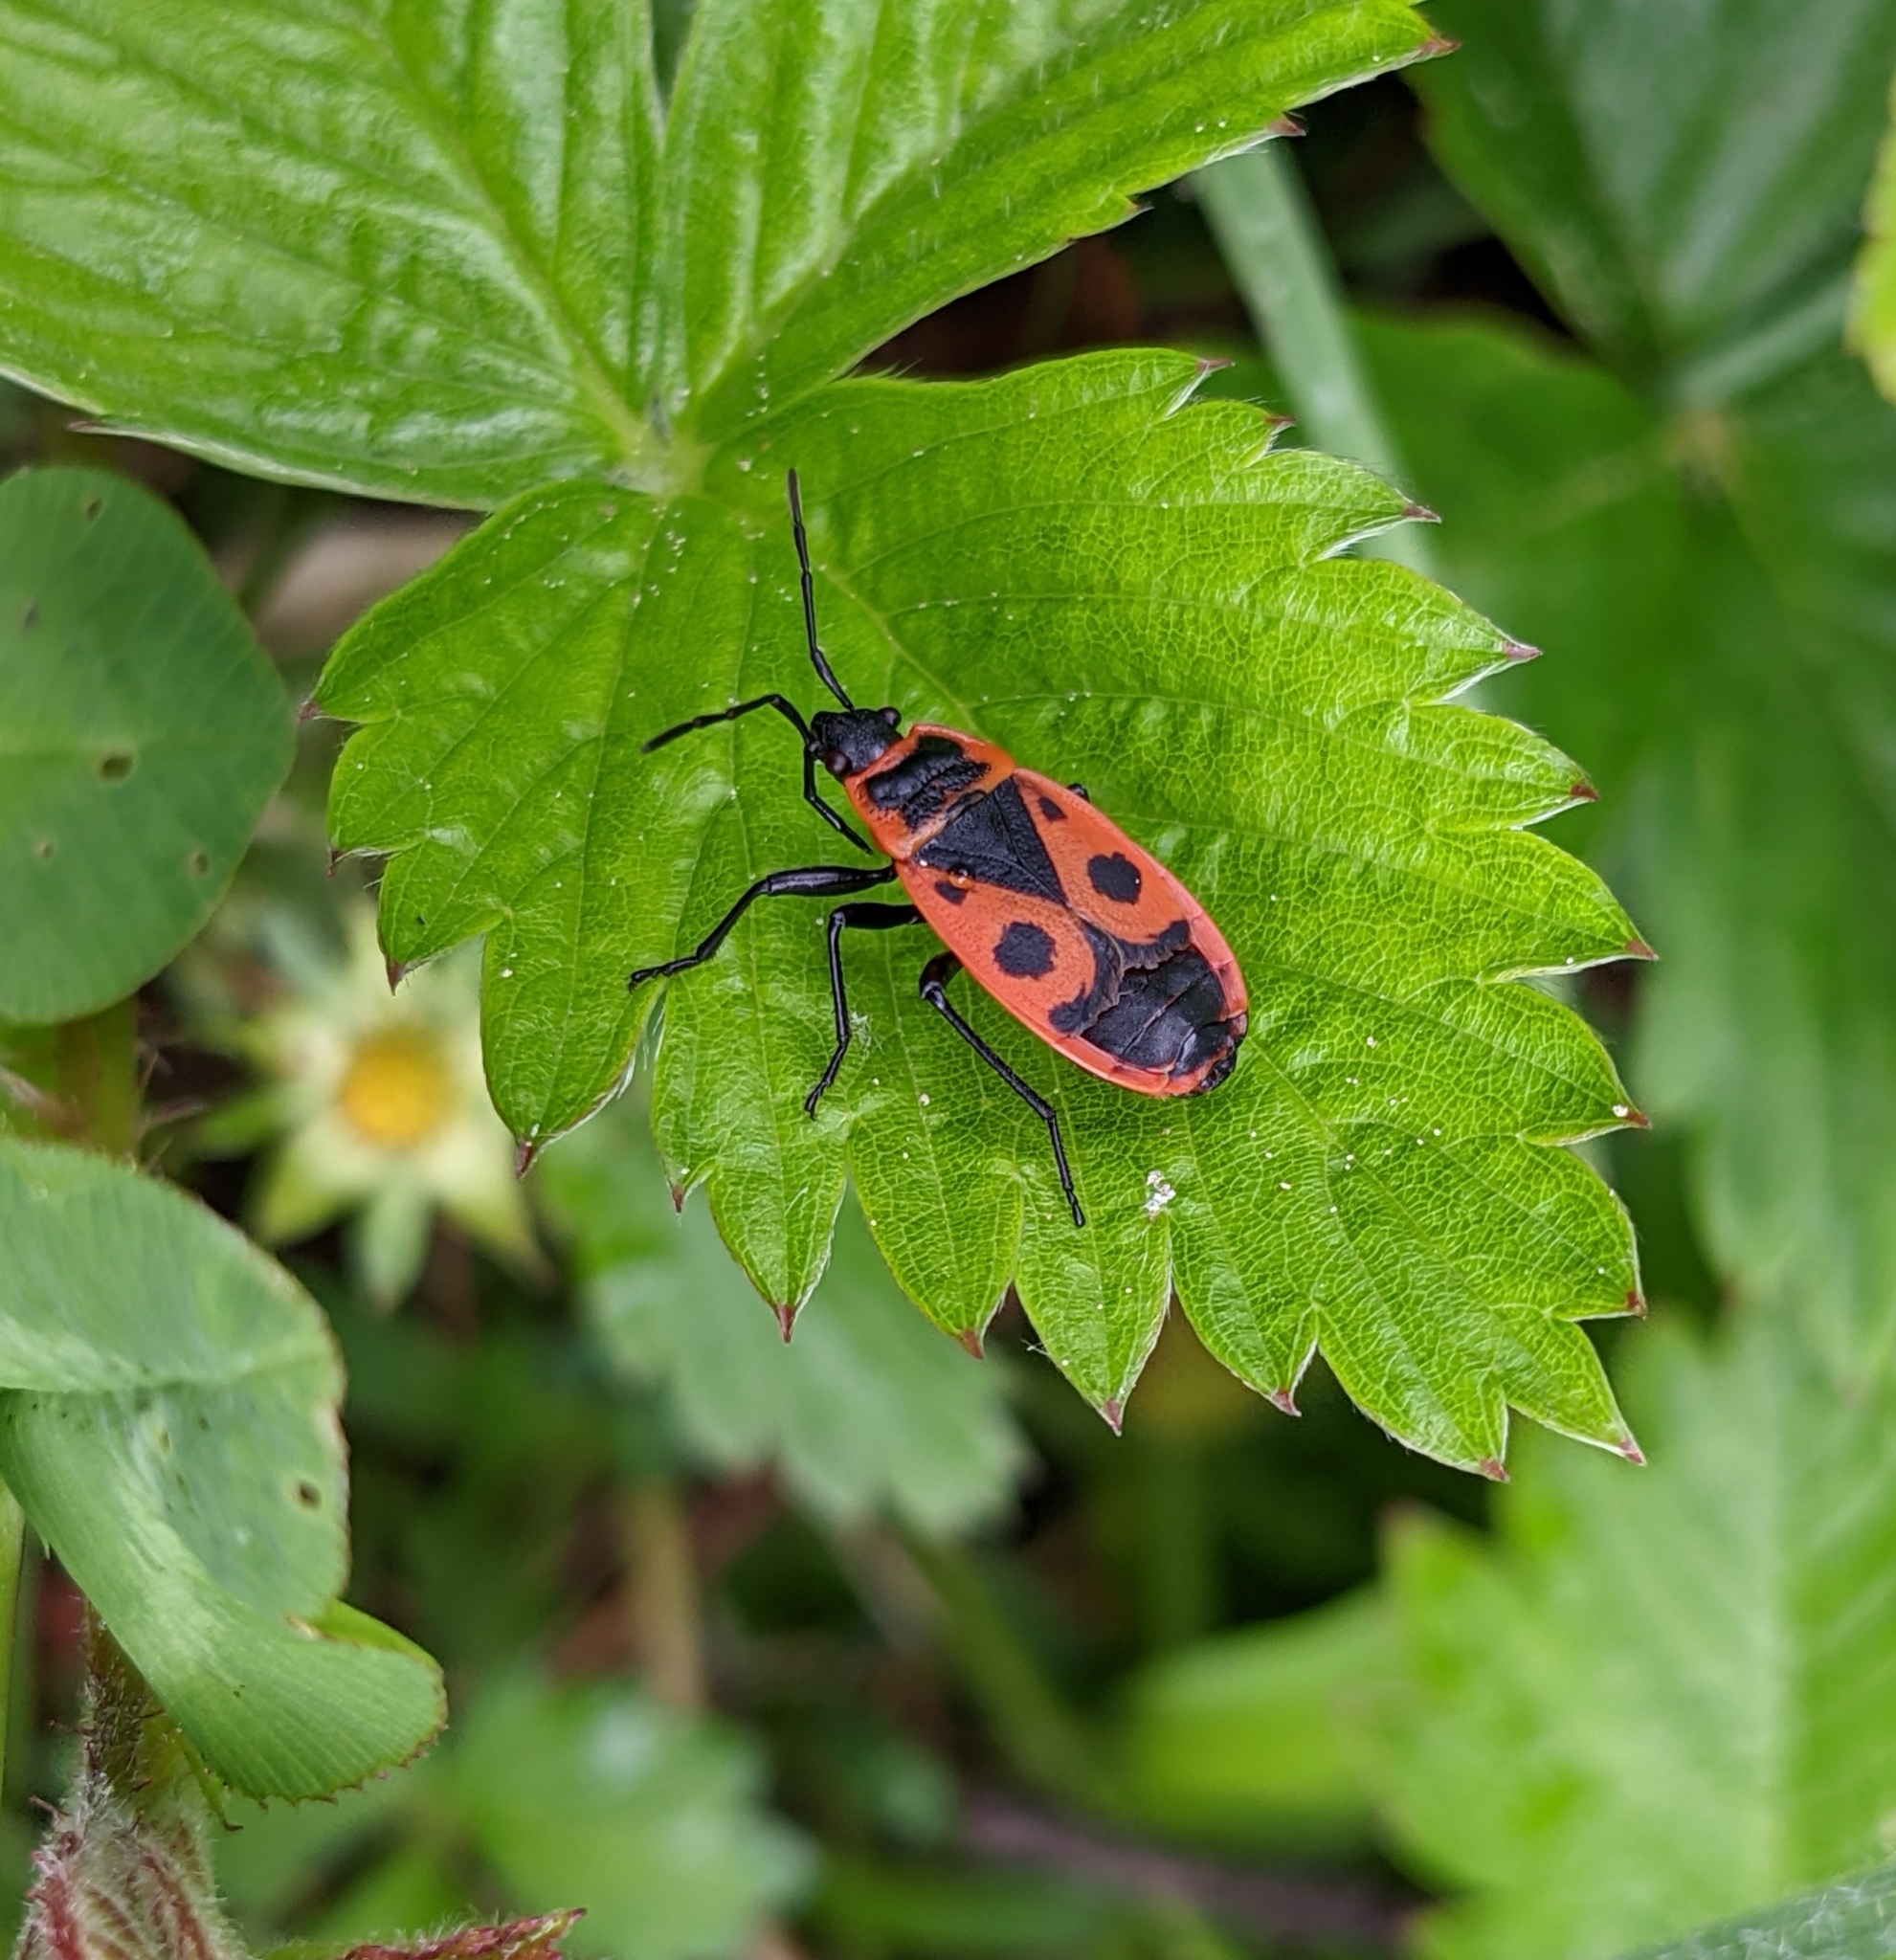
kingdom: Animalia
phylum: Arthropoda
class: Insecta
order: Hemiptera
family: Pyrrhocoridae
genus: Pyrrhocoris
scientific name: Pyrrhocoris apterus
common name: Firebug
